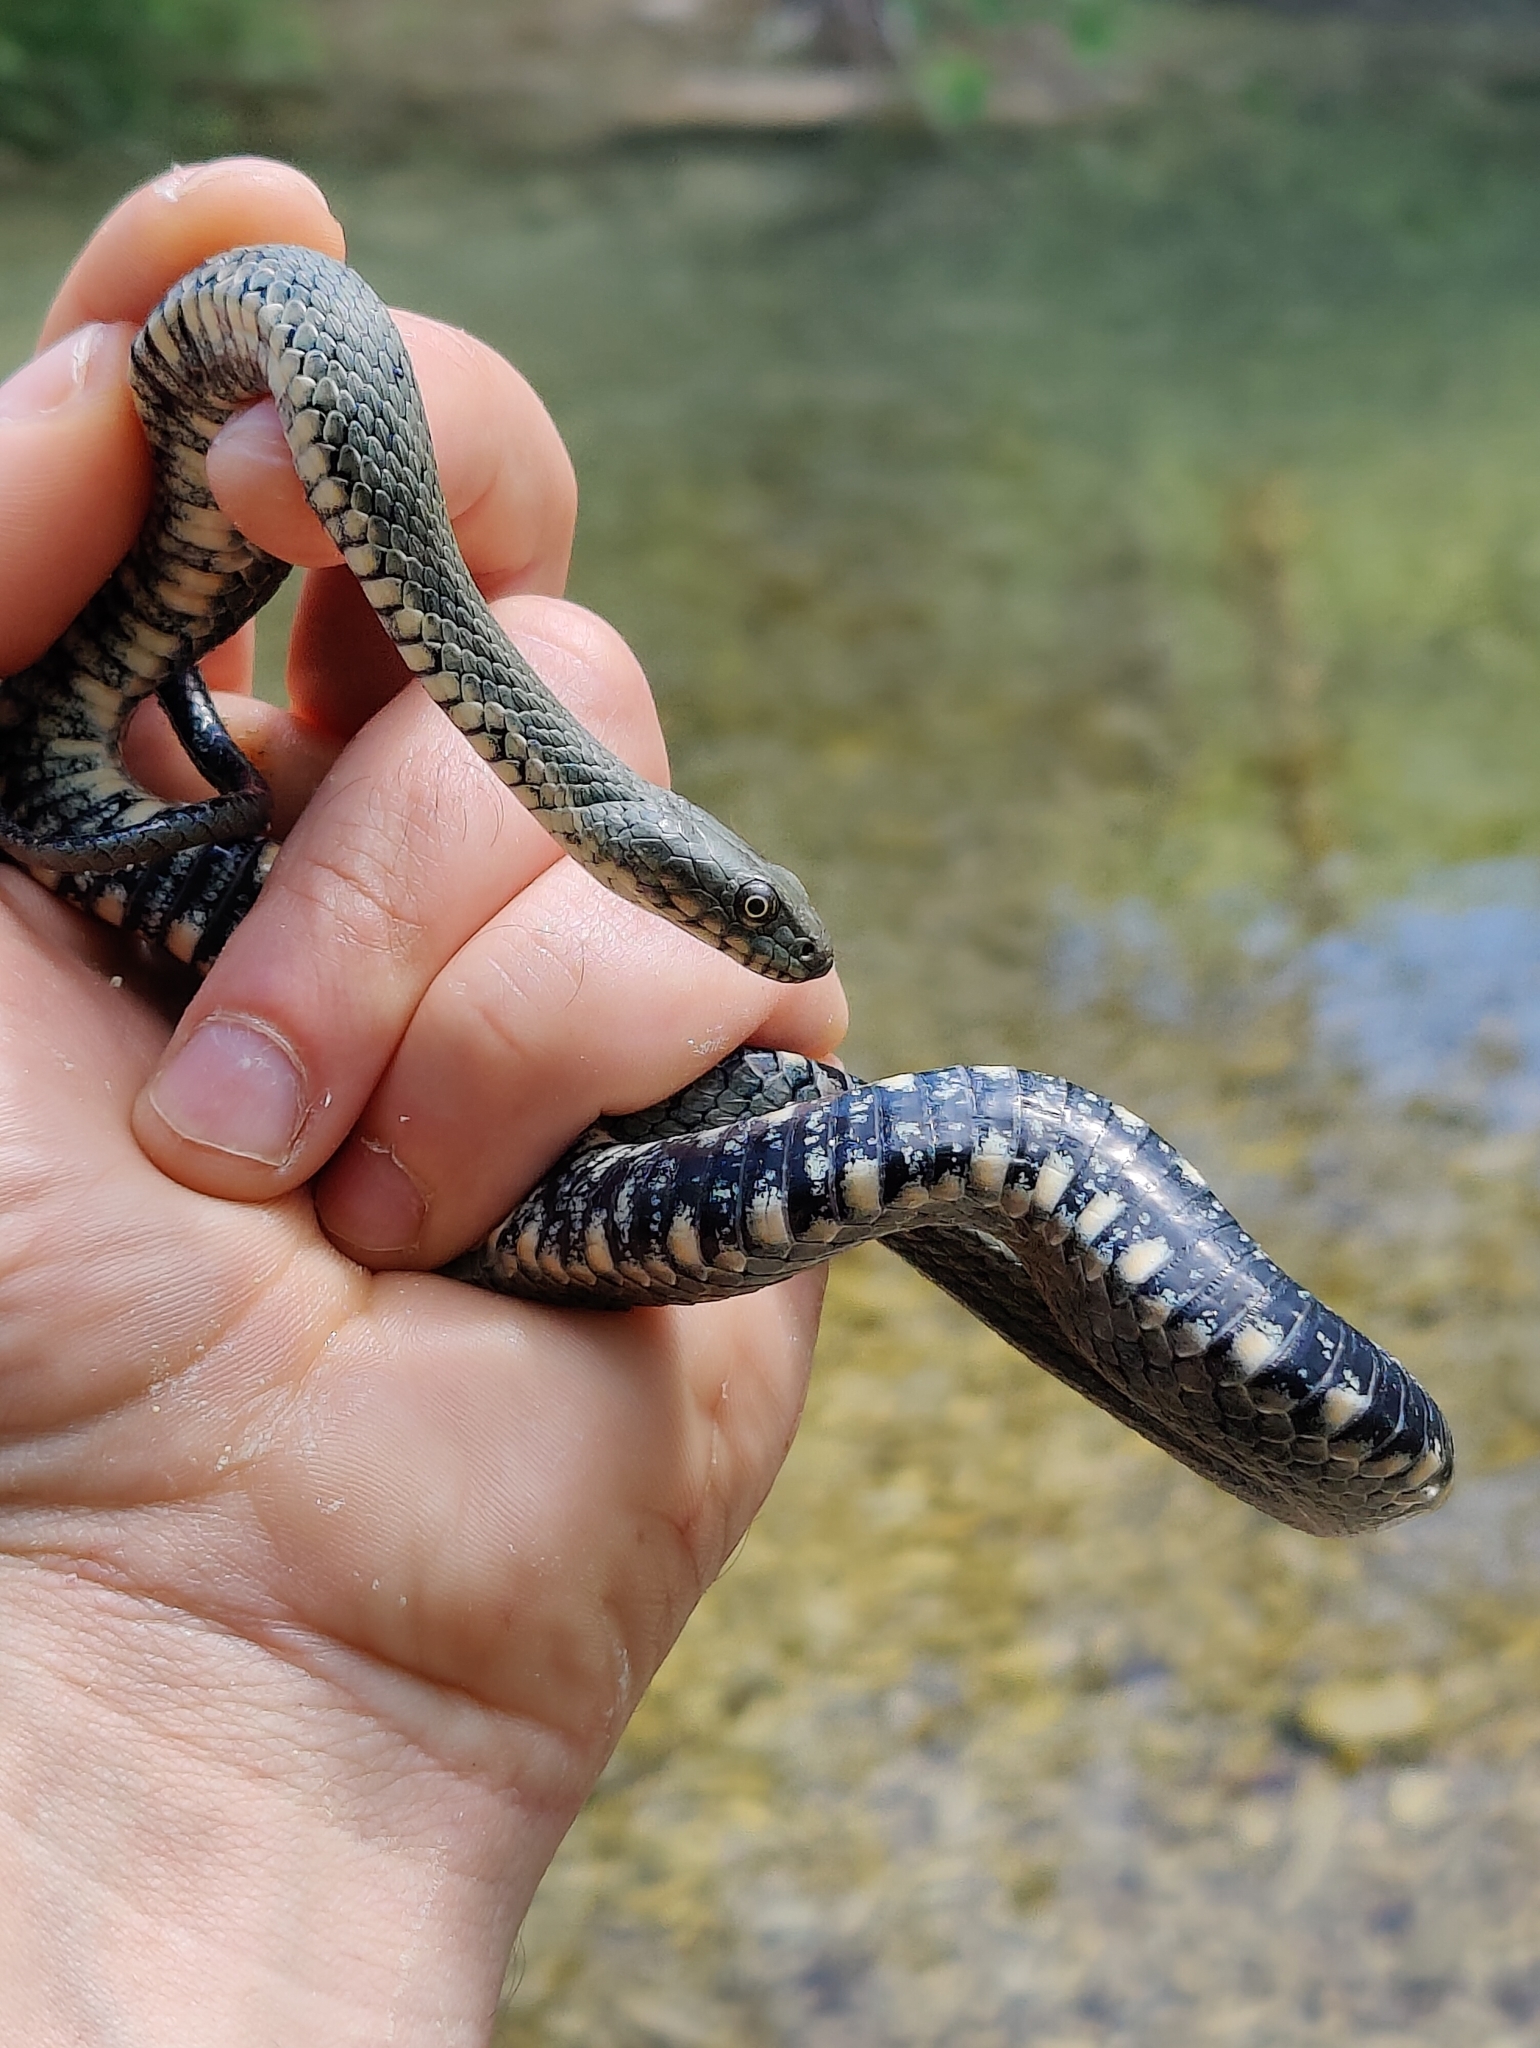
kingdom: Animalia
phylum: Chordata
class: Squamata
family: Colubridae
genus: Natrix
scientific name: Natrix tessellata
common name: Dice snake
